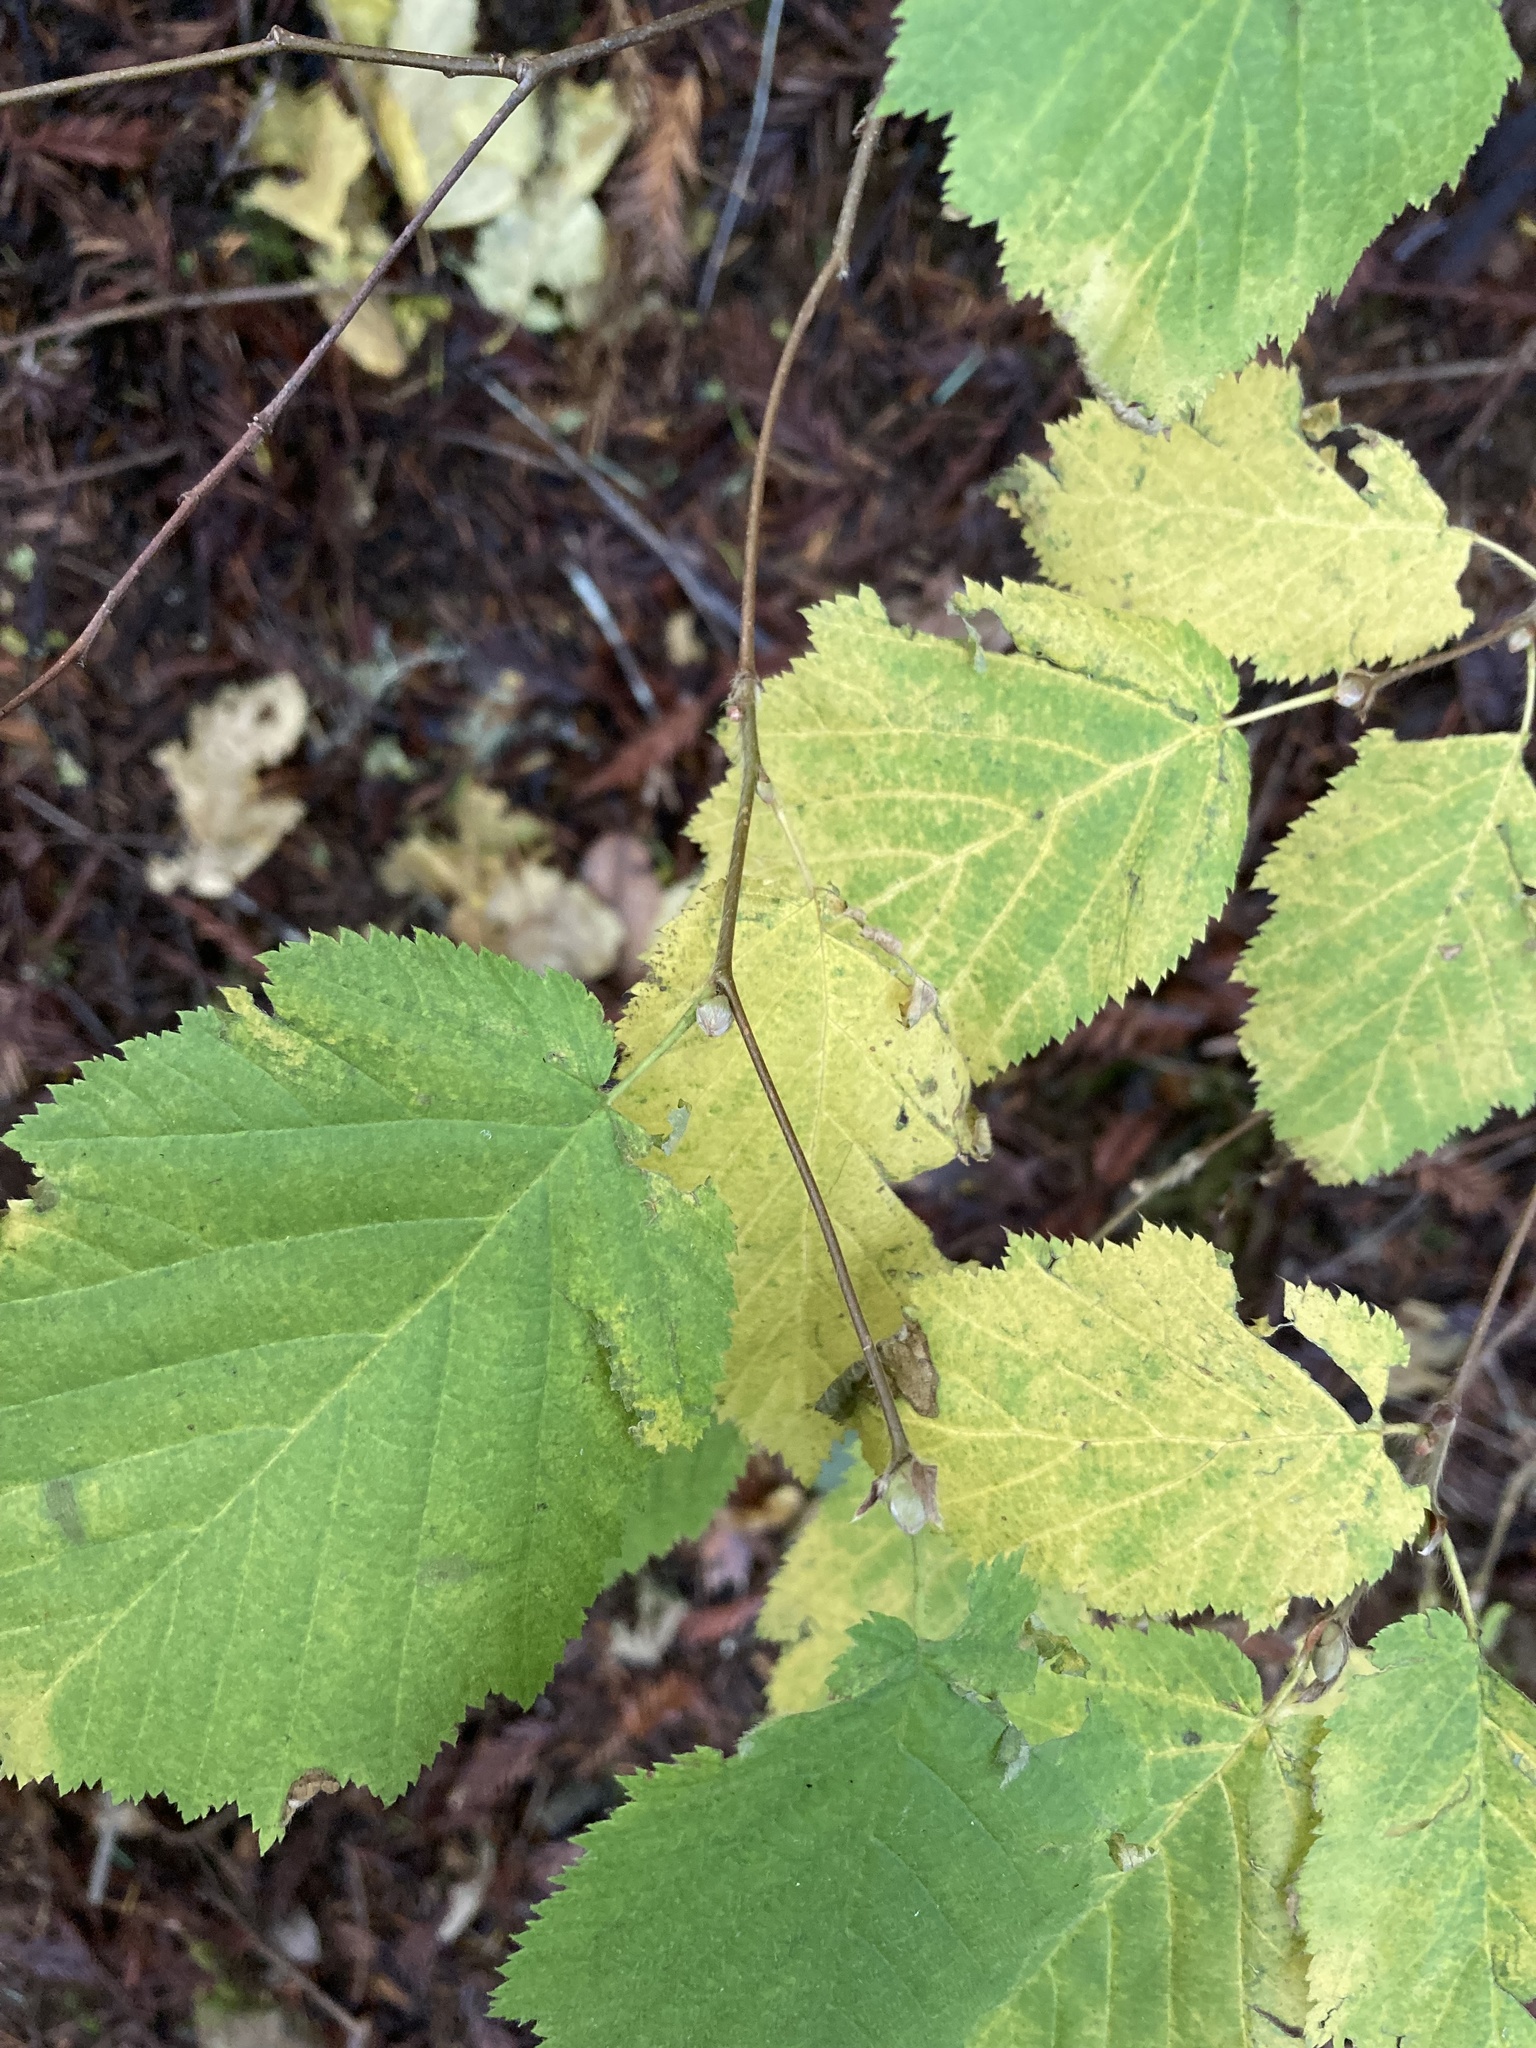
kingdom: Plantae
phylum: Tracheophyta
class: Magnoliopsida
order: Fagales
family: Betulaceae
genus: Corylus
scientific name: Corylus cornuta
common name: Beaked hazel
